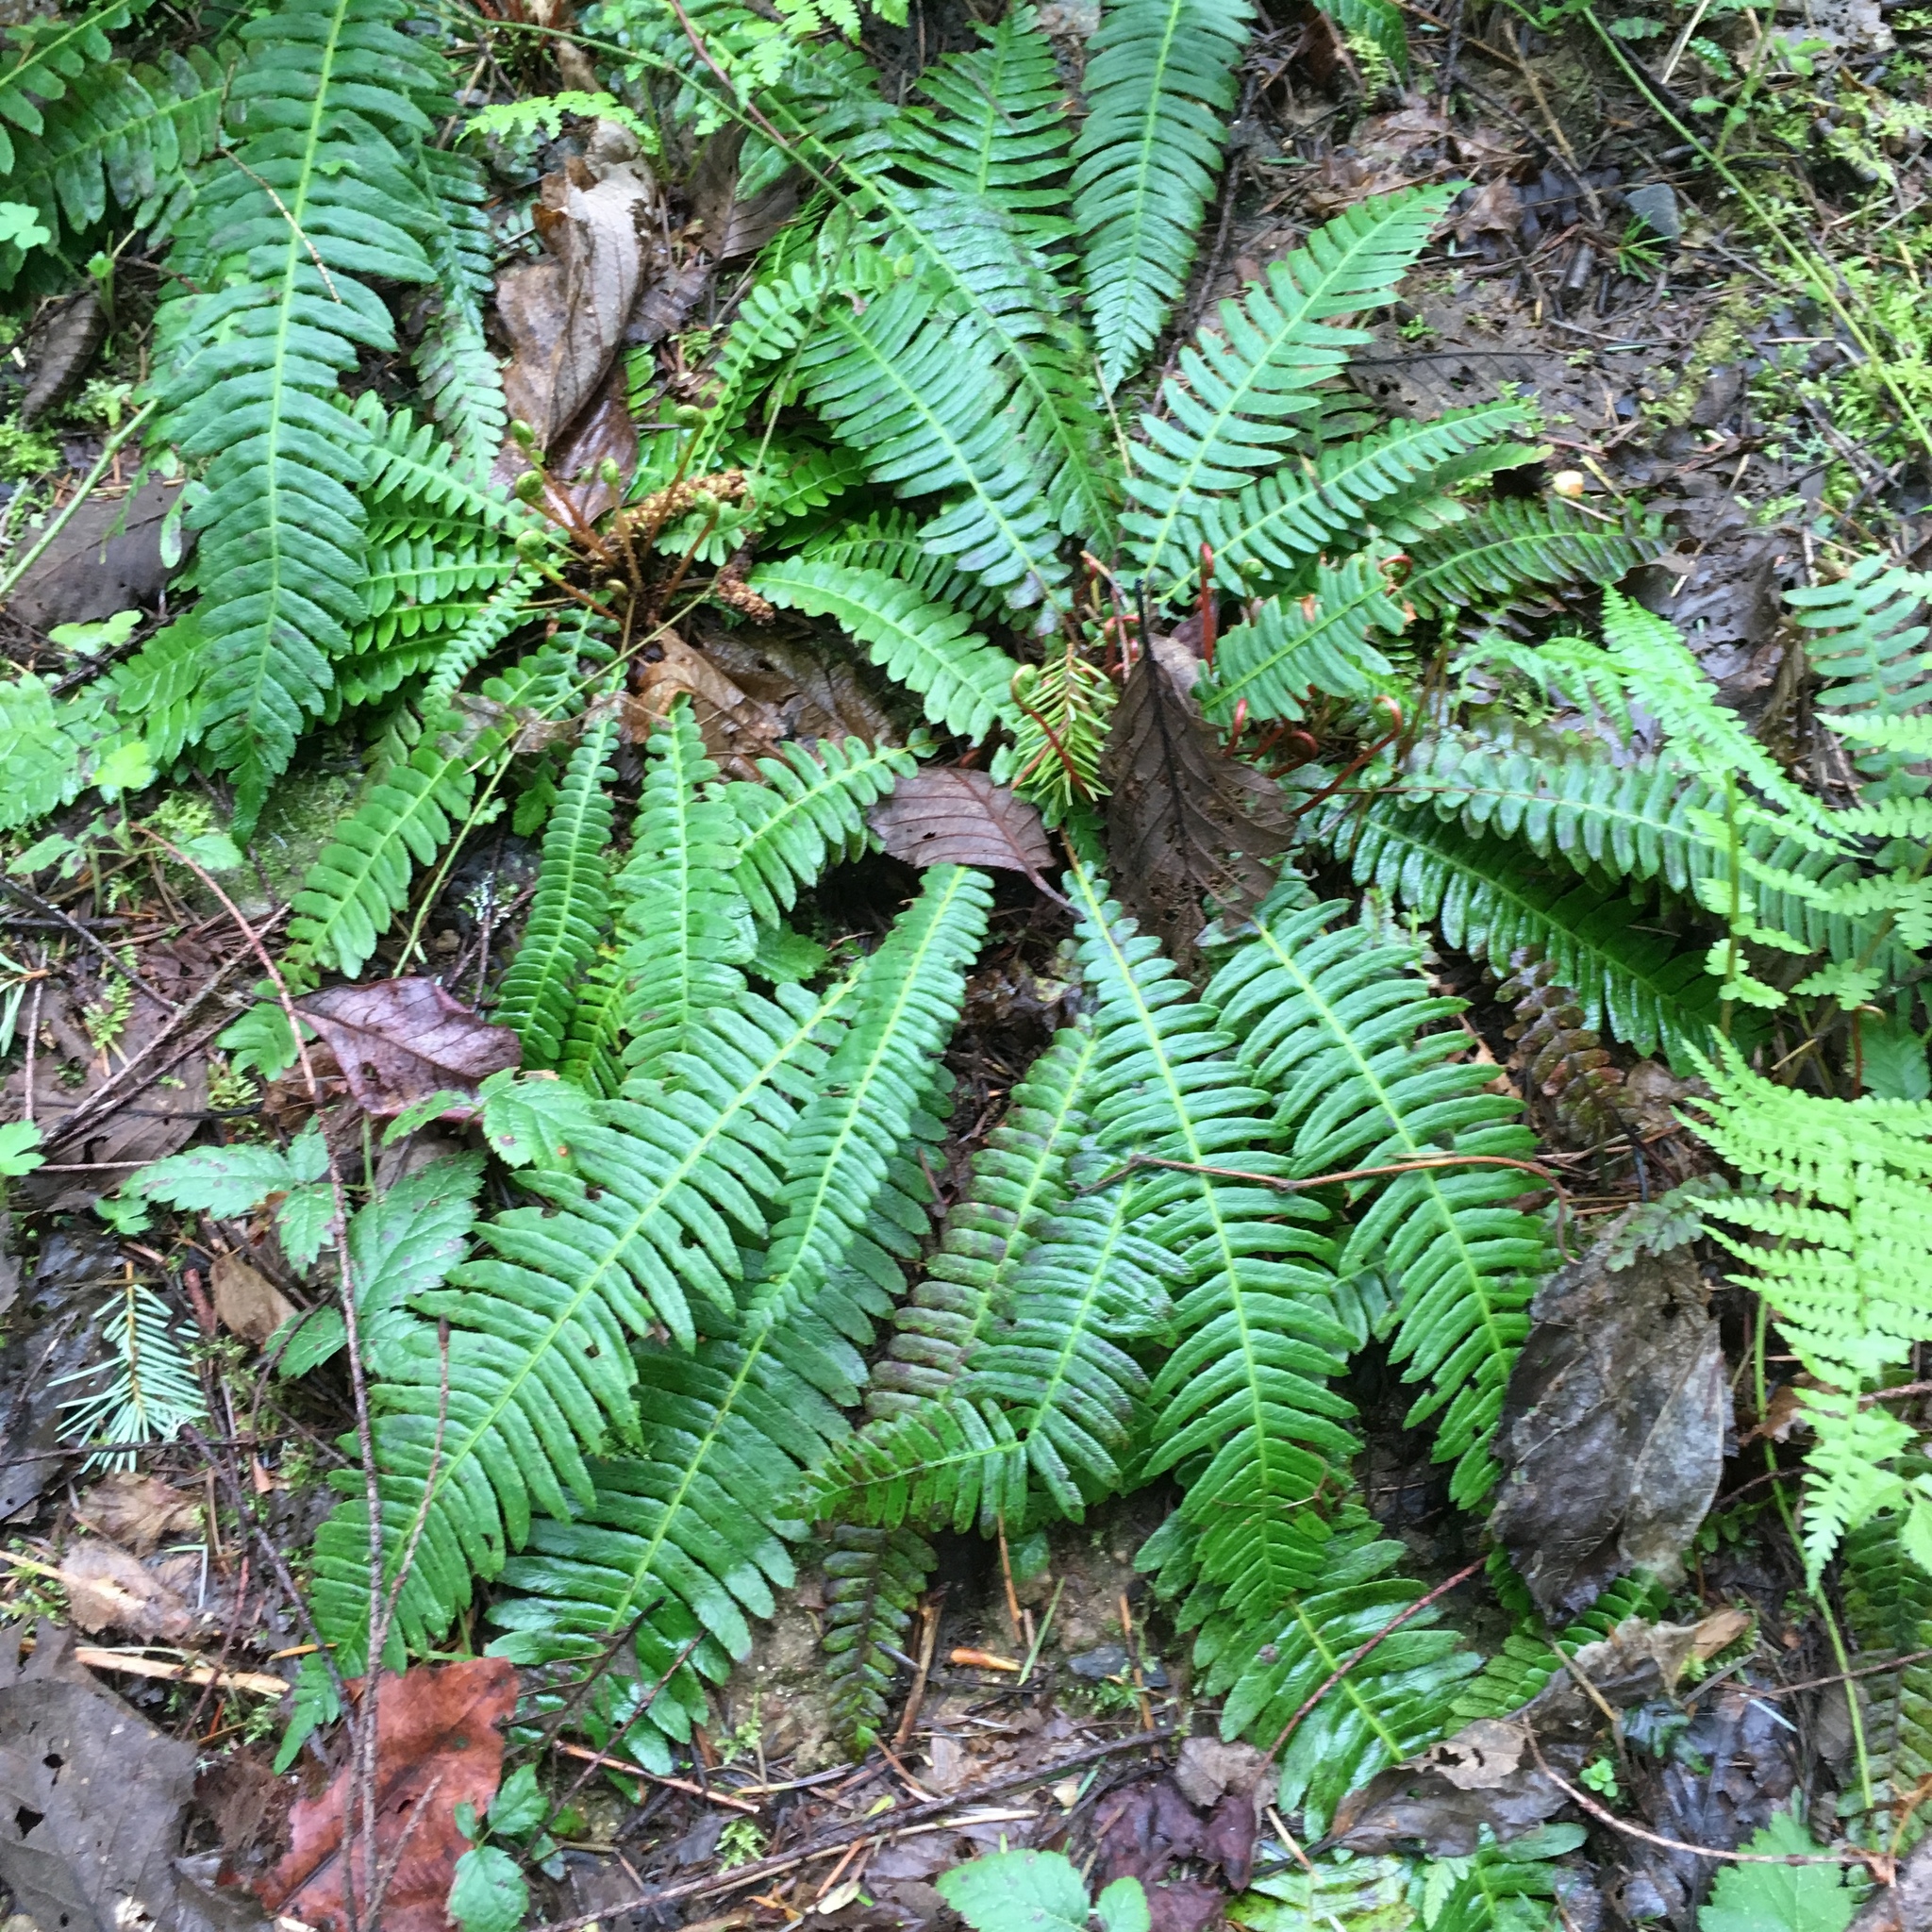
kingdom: Plantae
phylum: Tracheophyta
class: Polypodiopsida
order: Polypodiales
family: Blechnaceae
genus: Struthiopteris
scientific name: Struthiopteris spicant
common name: Deer fern
